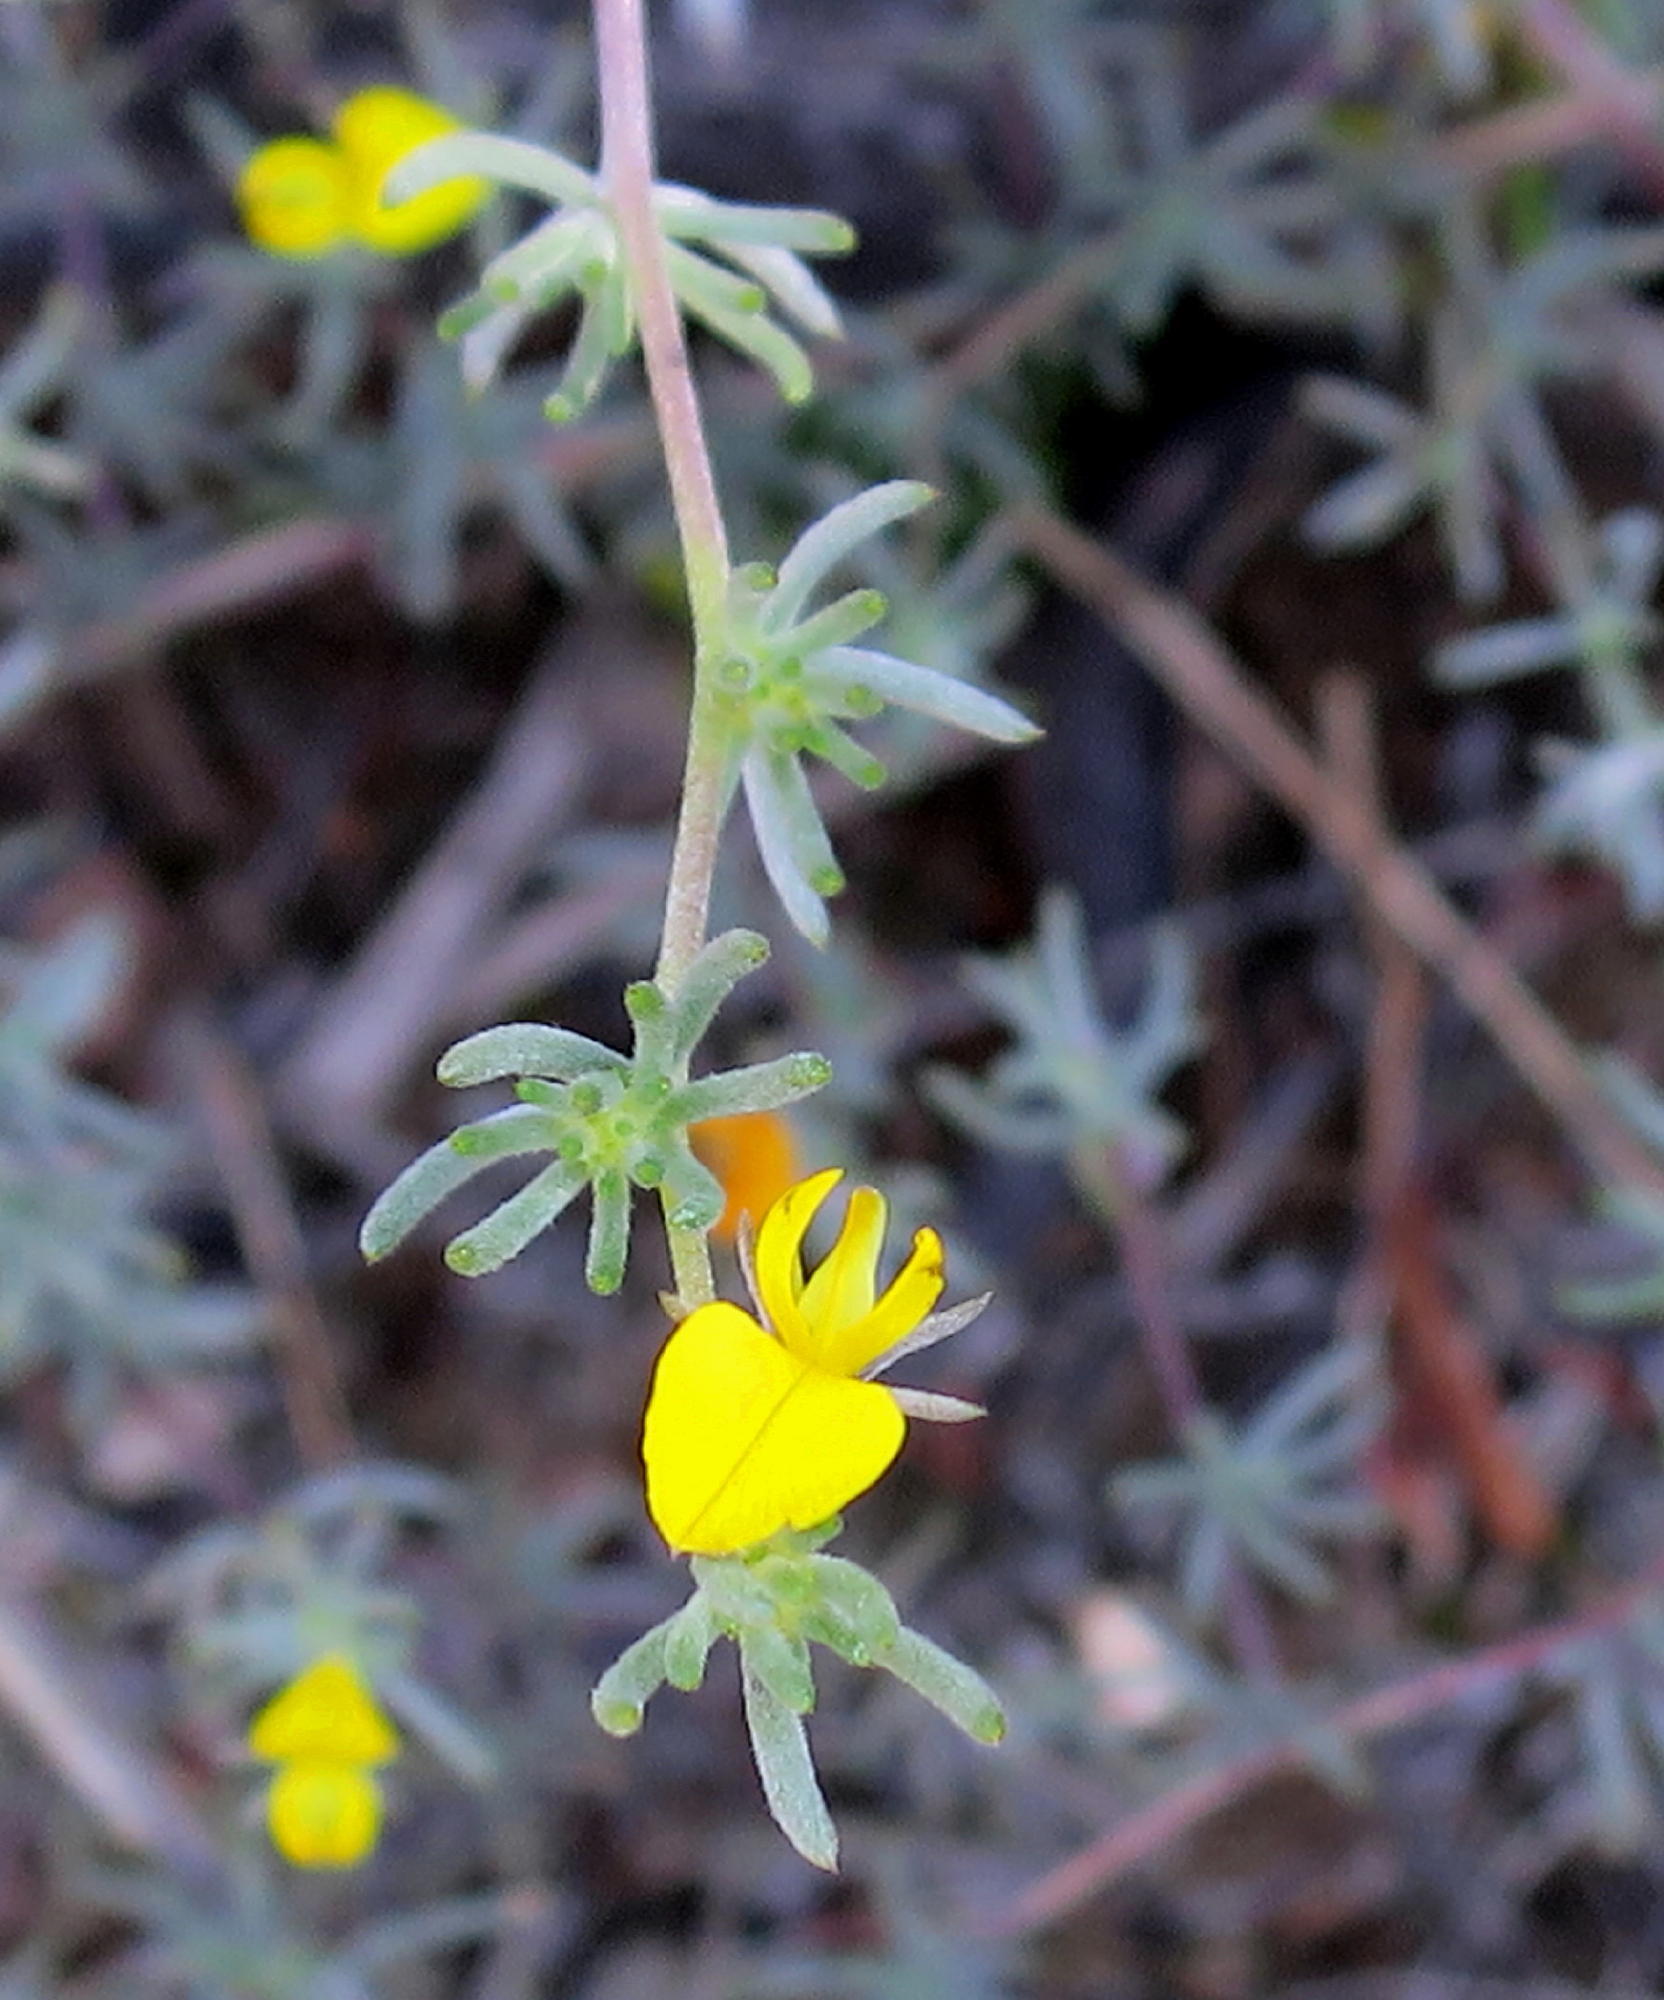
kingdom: Plantae
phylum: Tracheophyta
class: Magnoliopsida
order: Fabales
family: Fabaceae
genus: Aspalathus
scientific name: Aspalathus digitifolia
